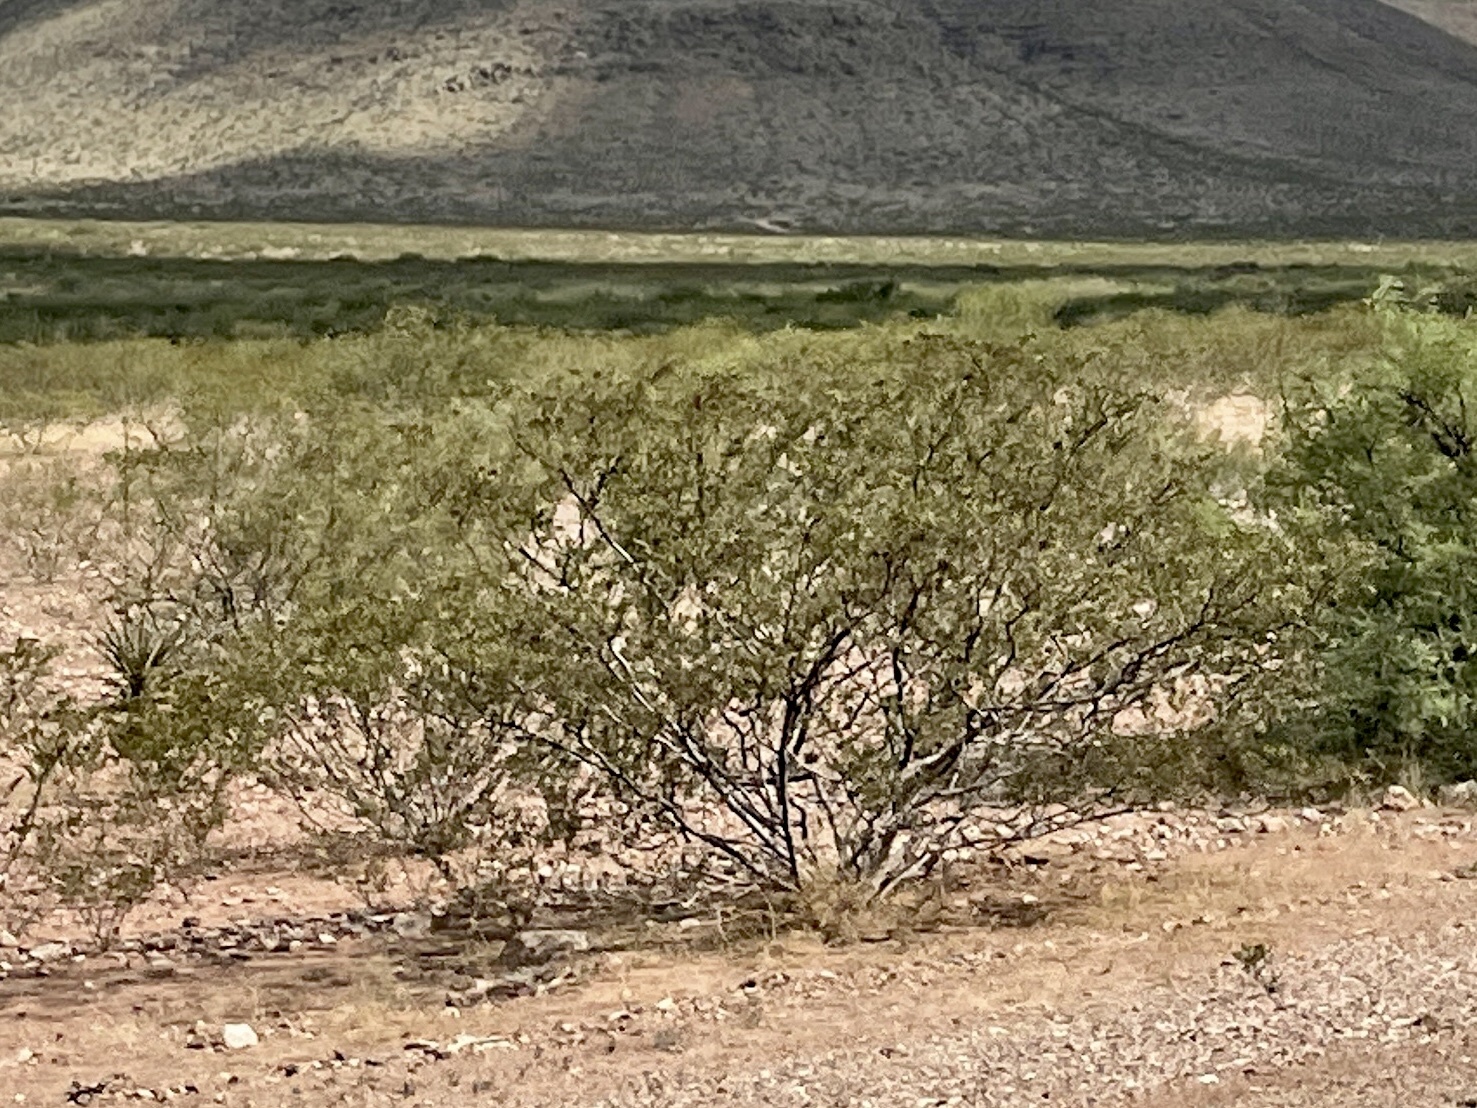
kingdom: Plantae
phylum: Tracheophyta
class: Magnoliopsida
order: Zygophyllales
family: Zygophyllaceae
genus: Larrea
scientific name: Larrea tridentata
